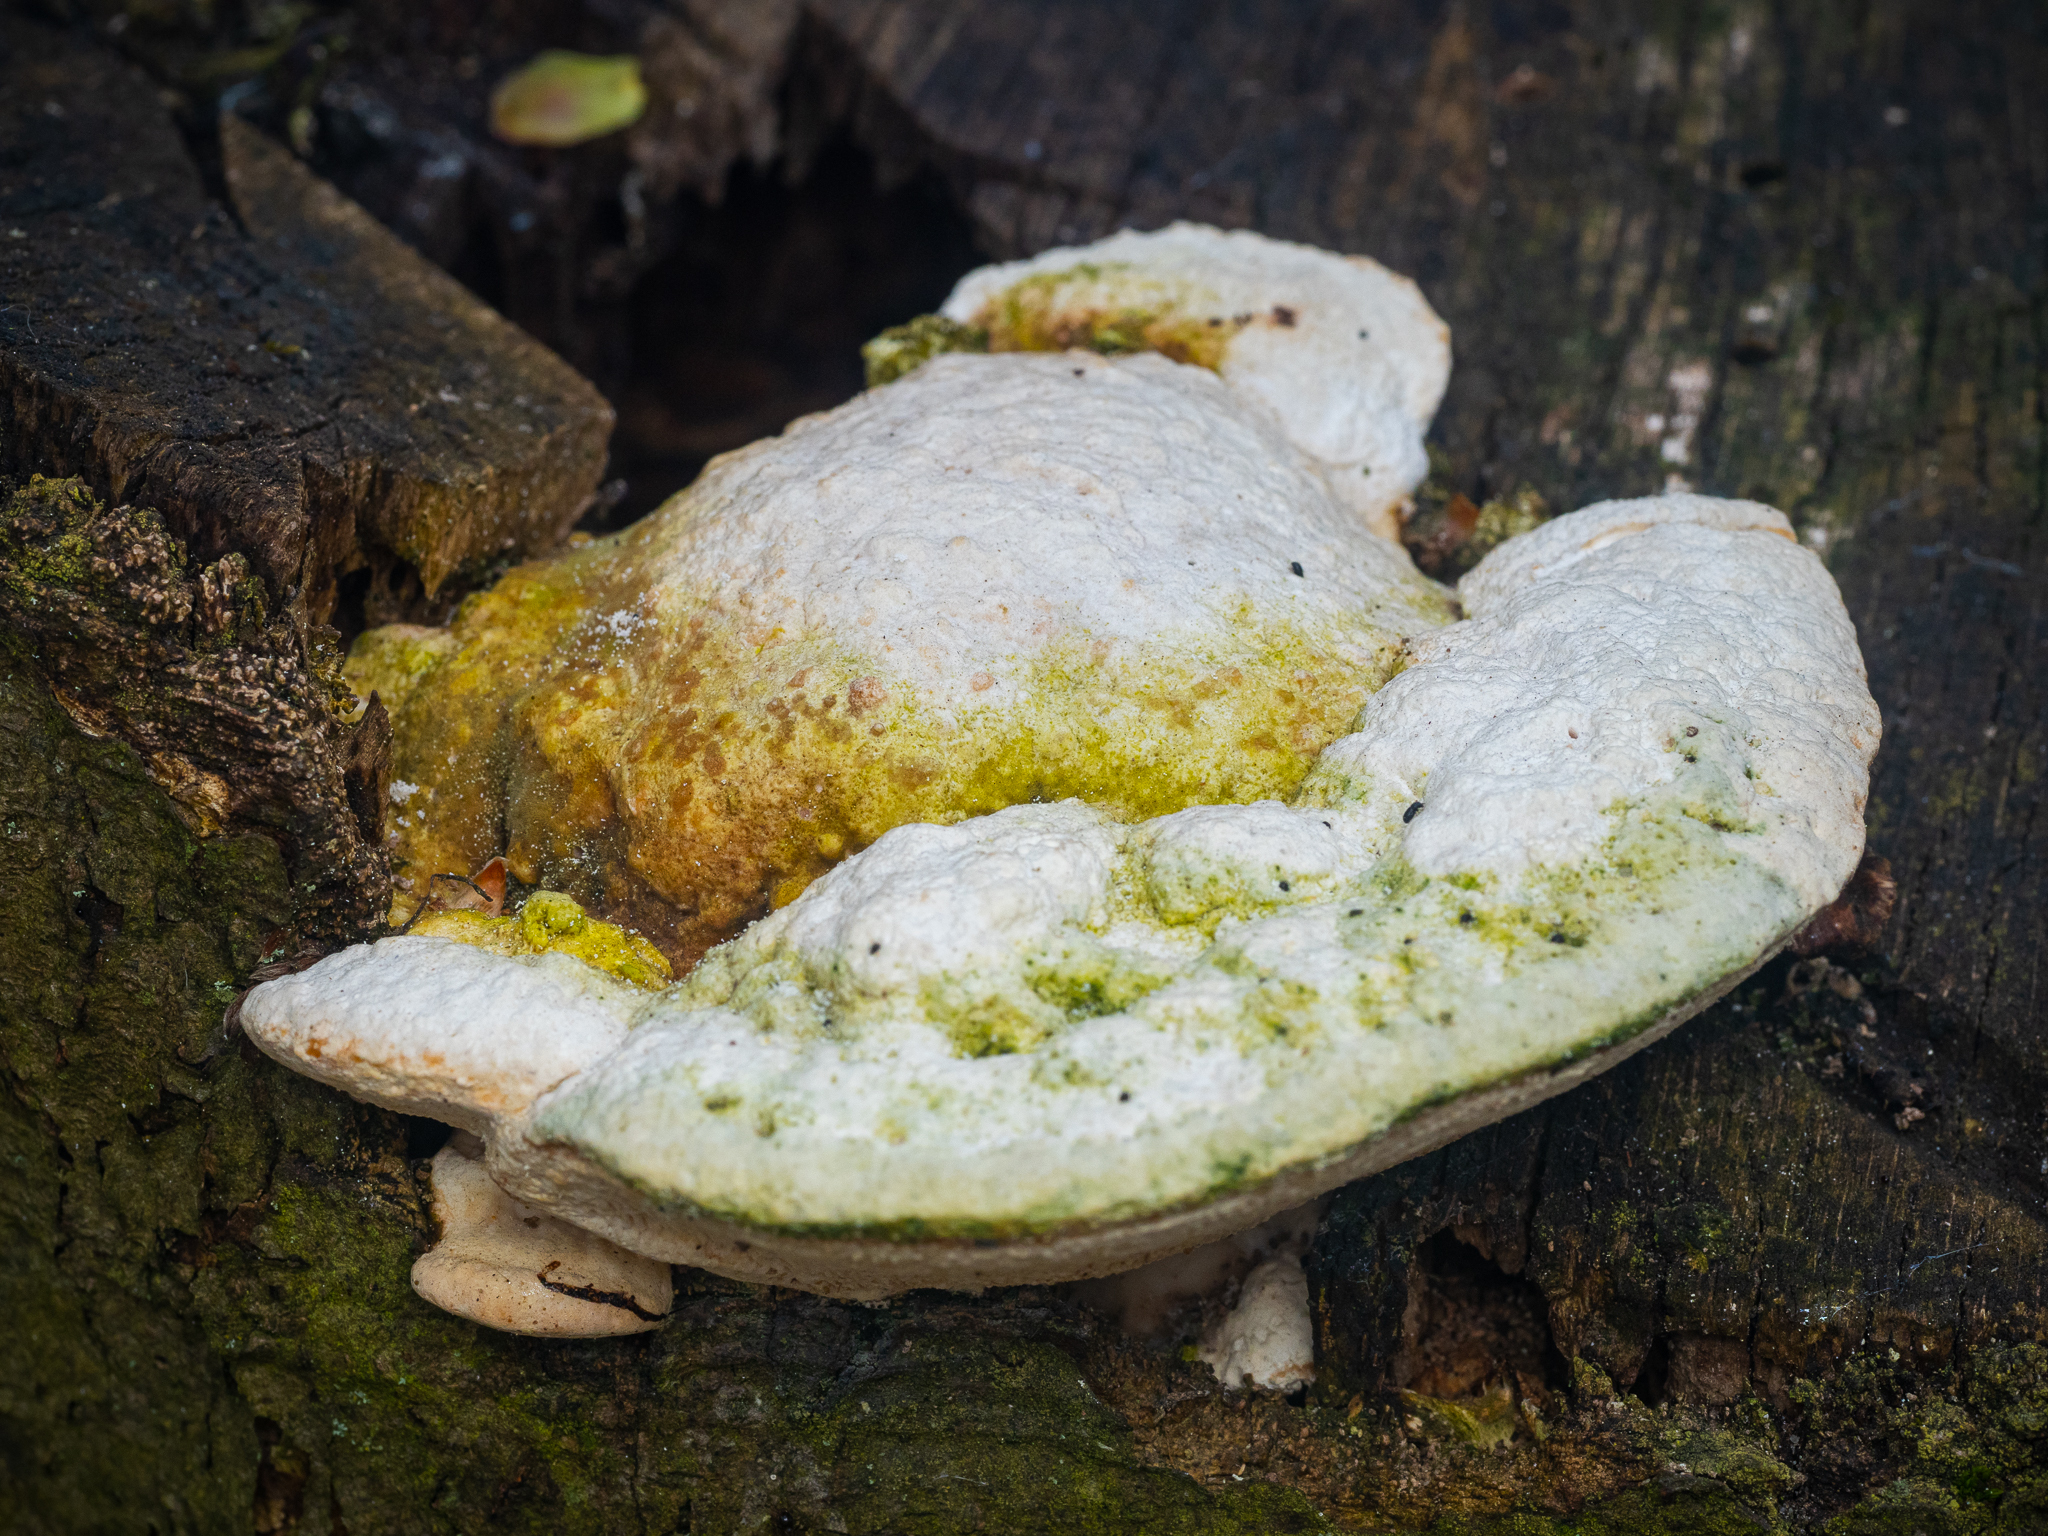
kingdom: Fungi
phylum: Basidiomycota
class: Agaricomycetes
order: Polyporales
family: Polyporaceae
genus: Trametes
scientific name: Trametes gibbosa
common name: Lumpy bracket
